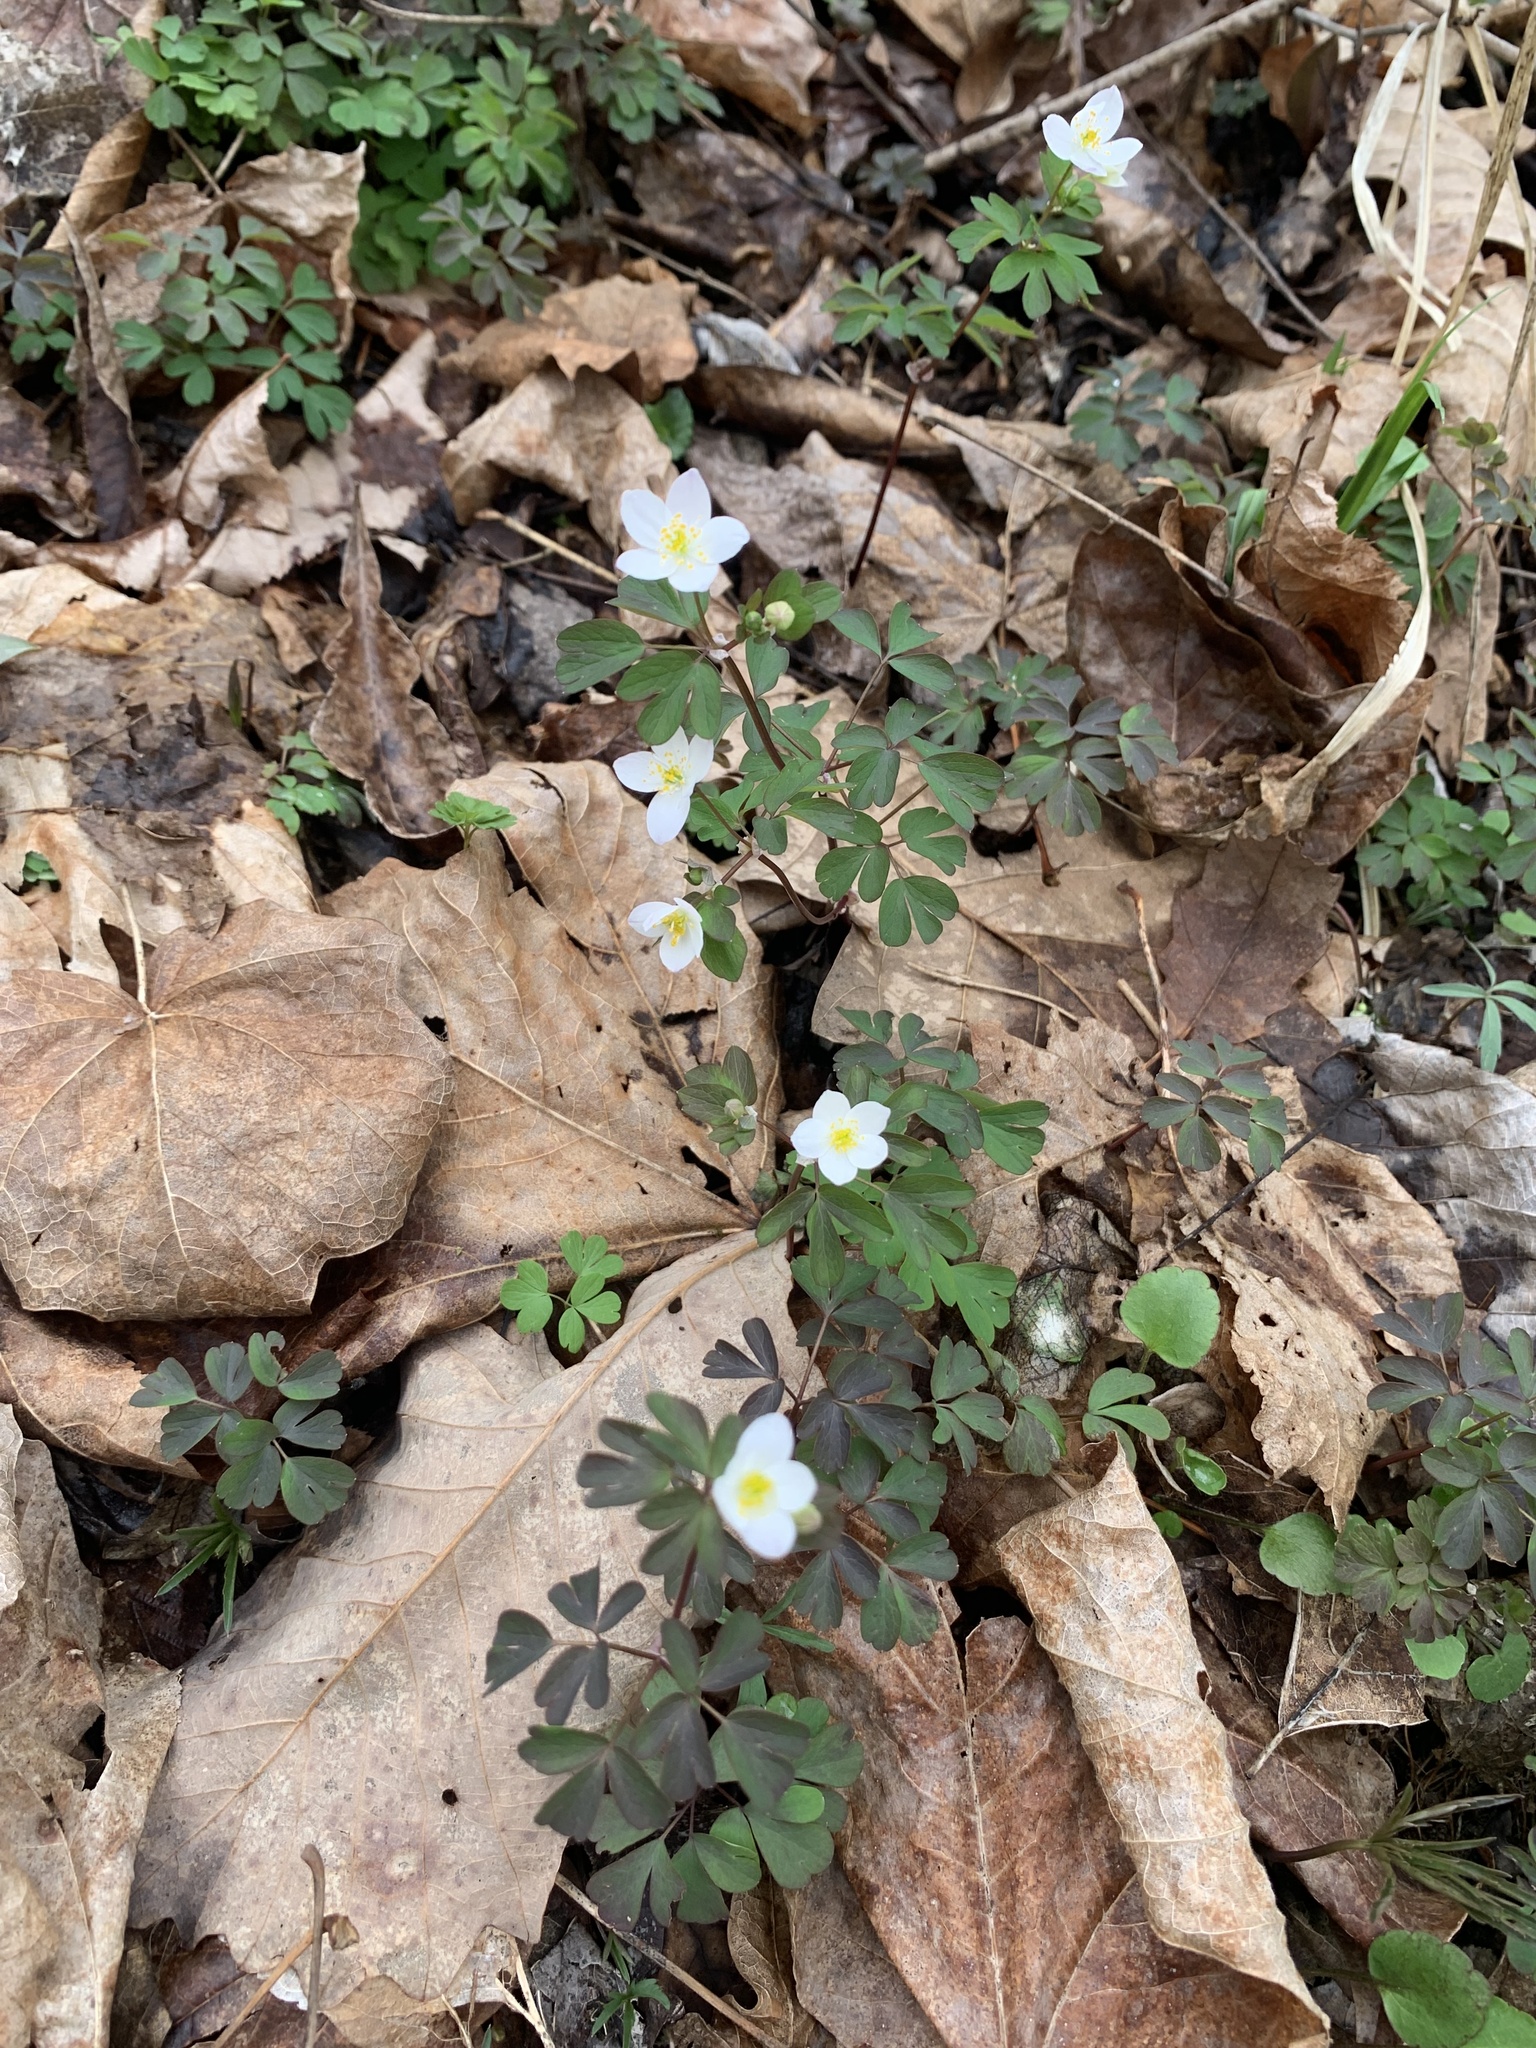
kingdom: Plantae
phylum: Tracheophyta
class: Magnoliopsida
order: Ranunculales
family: Ranunculaceae
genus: Enemion
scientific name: Enemion biternatum
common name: Eastern false rue-anemone
